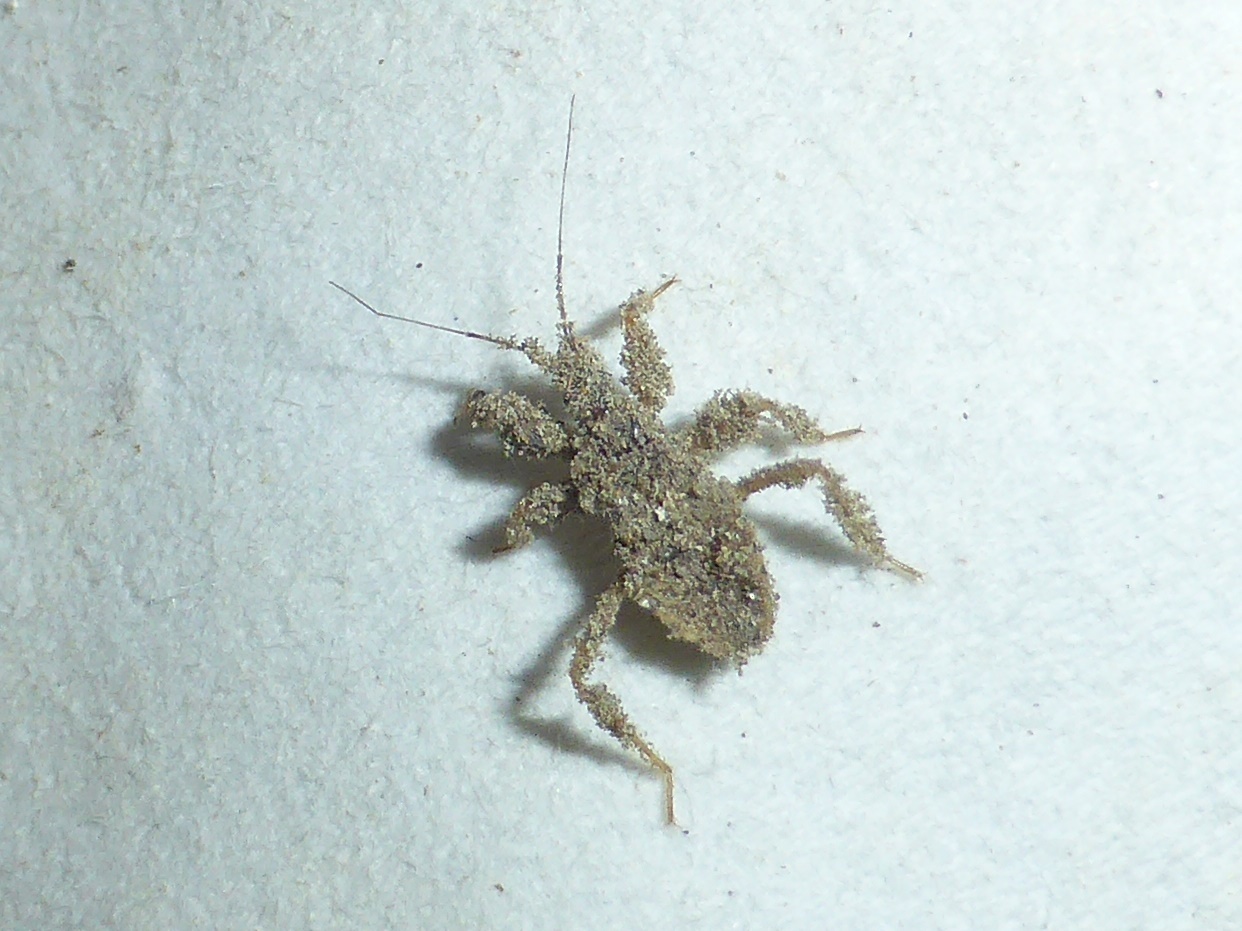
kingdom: Animalia
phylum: Arthropoda
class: Insecta
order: Hemiptera
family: Reduviidae
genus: Reduvius
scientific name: Reduvius personatus
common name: Masked hunter
